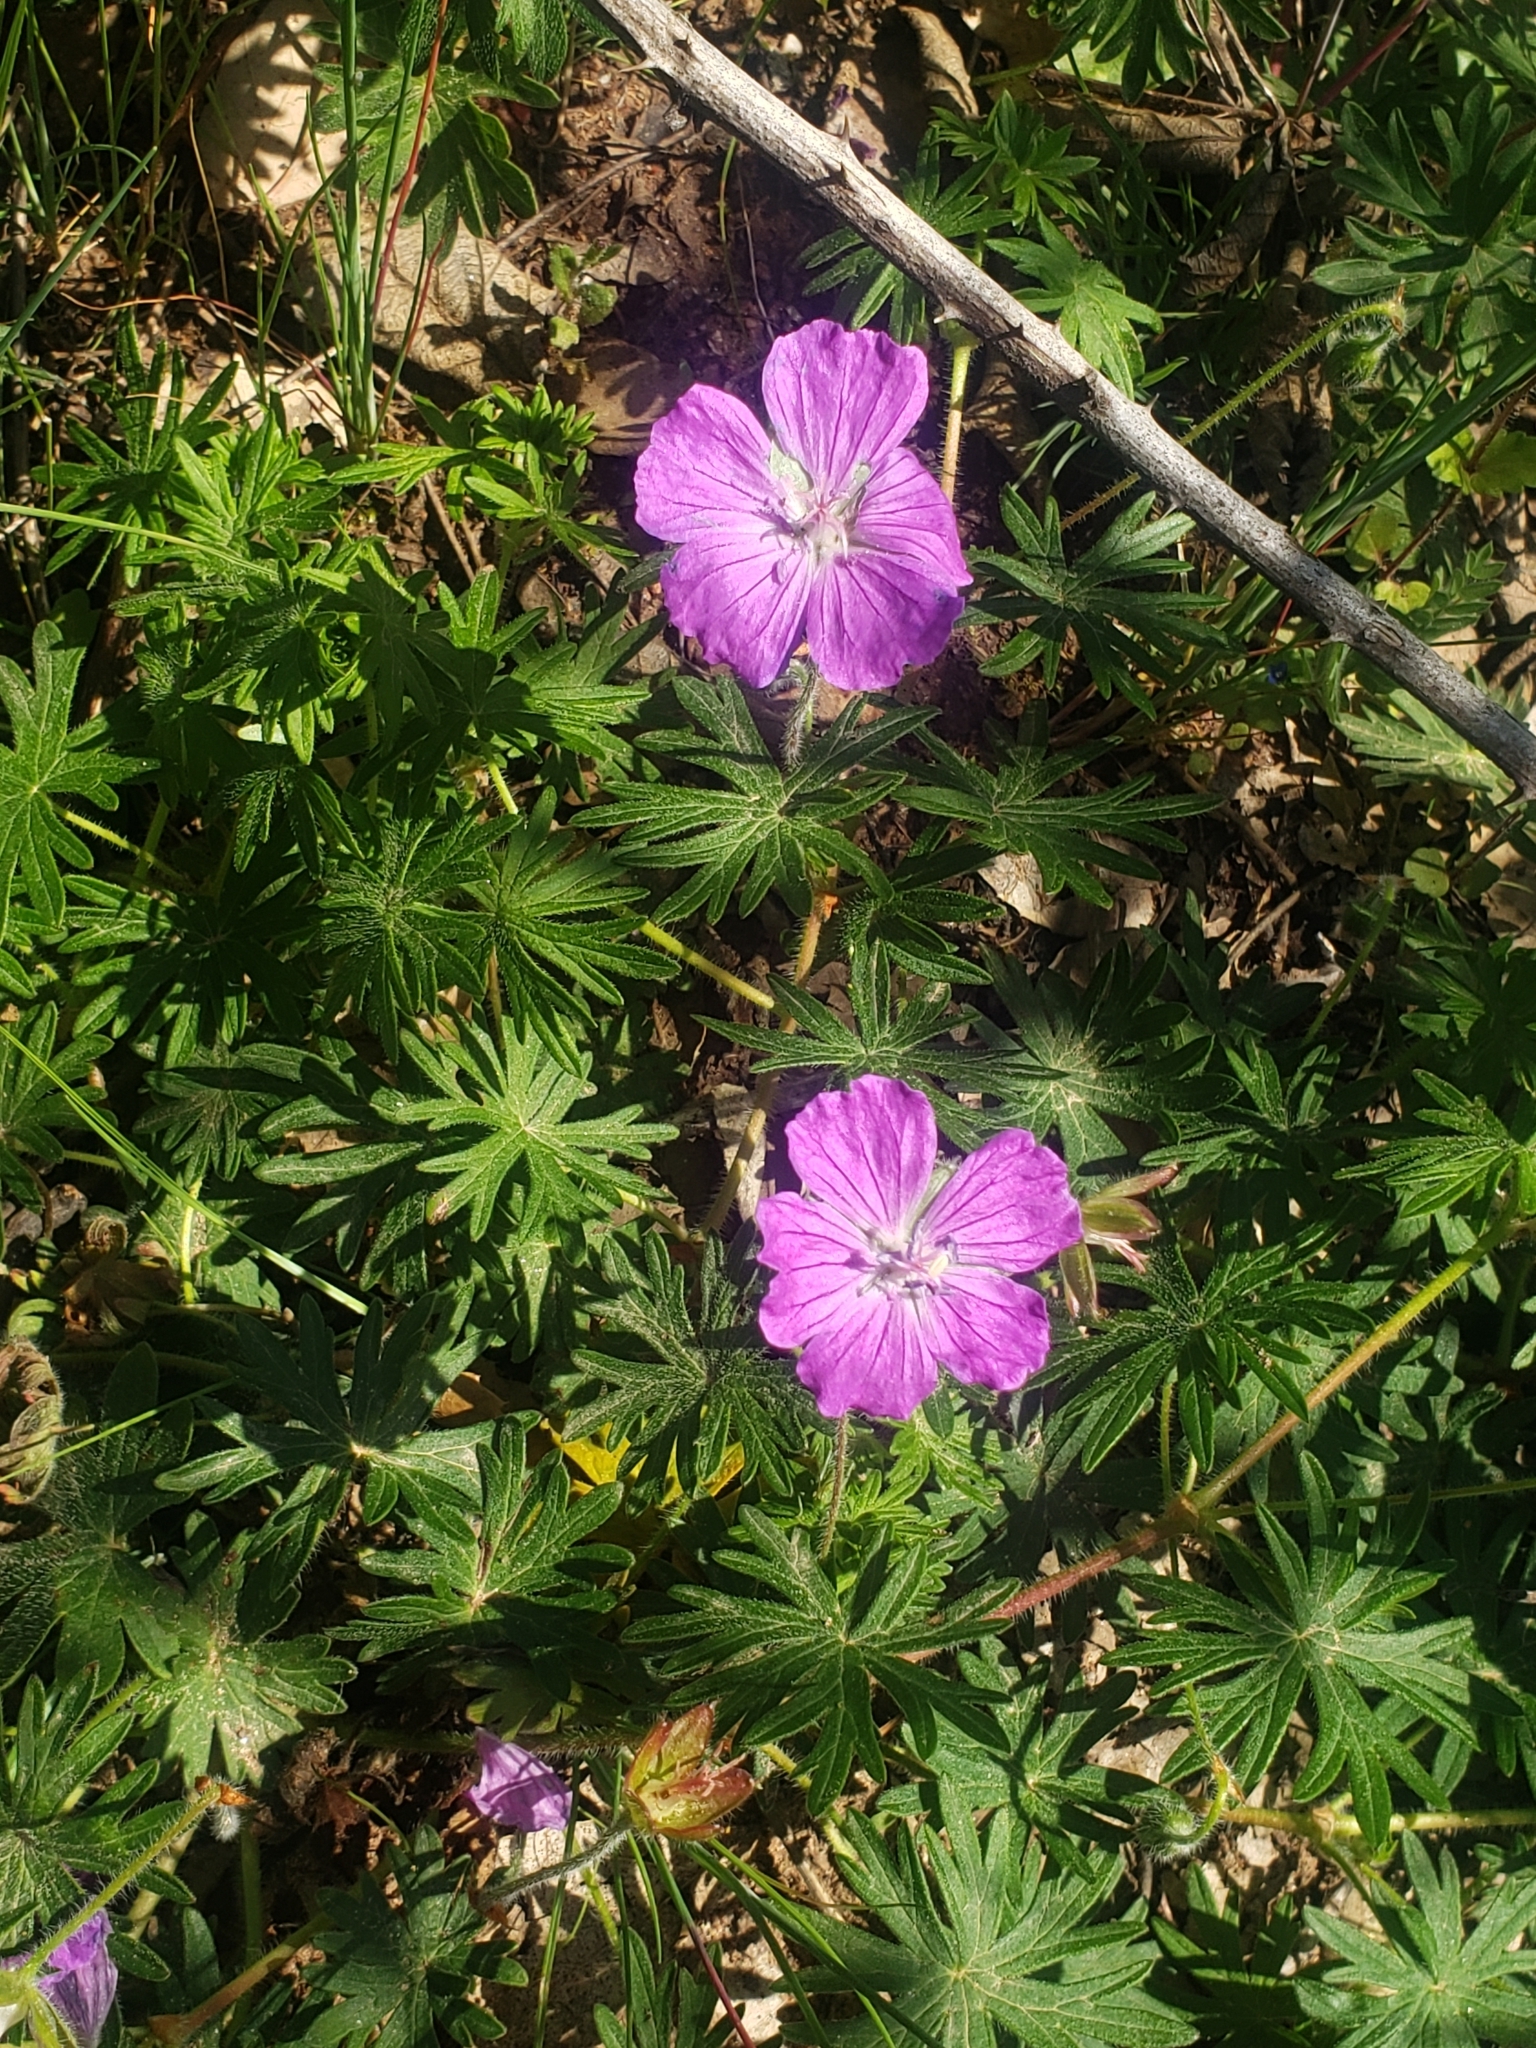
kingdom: Plantae
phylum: Tracheophyta
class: Magnoliopsida
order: Geraniales
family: Geraniaceae
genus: Geranium
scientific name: Geranium sanguineum
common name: Bloody crane's-bill
